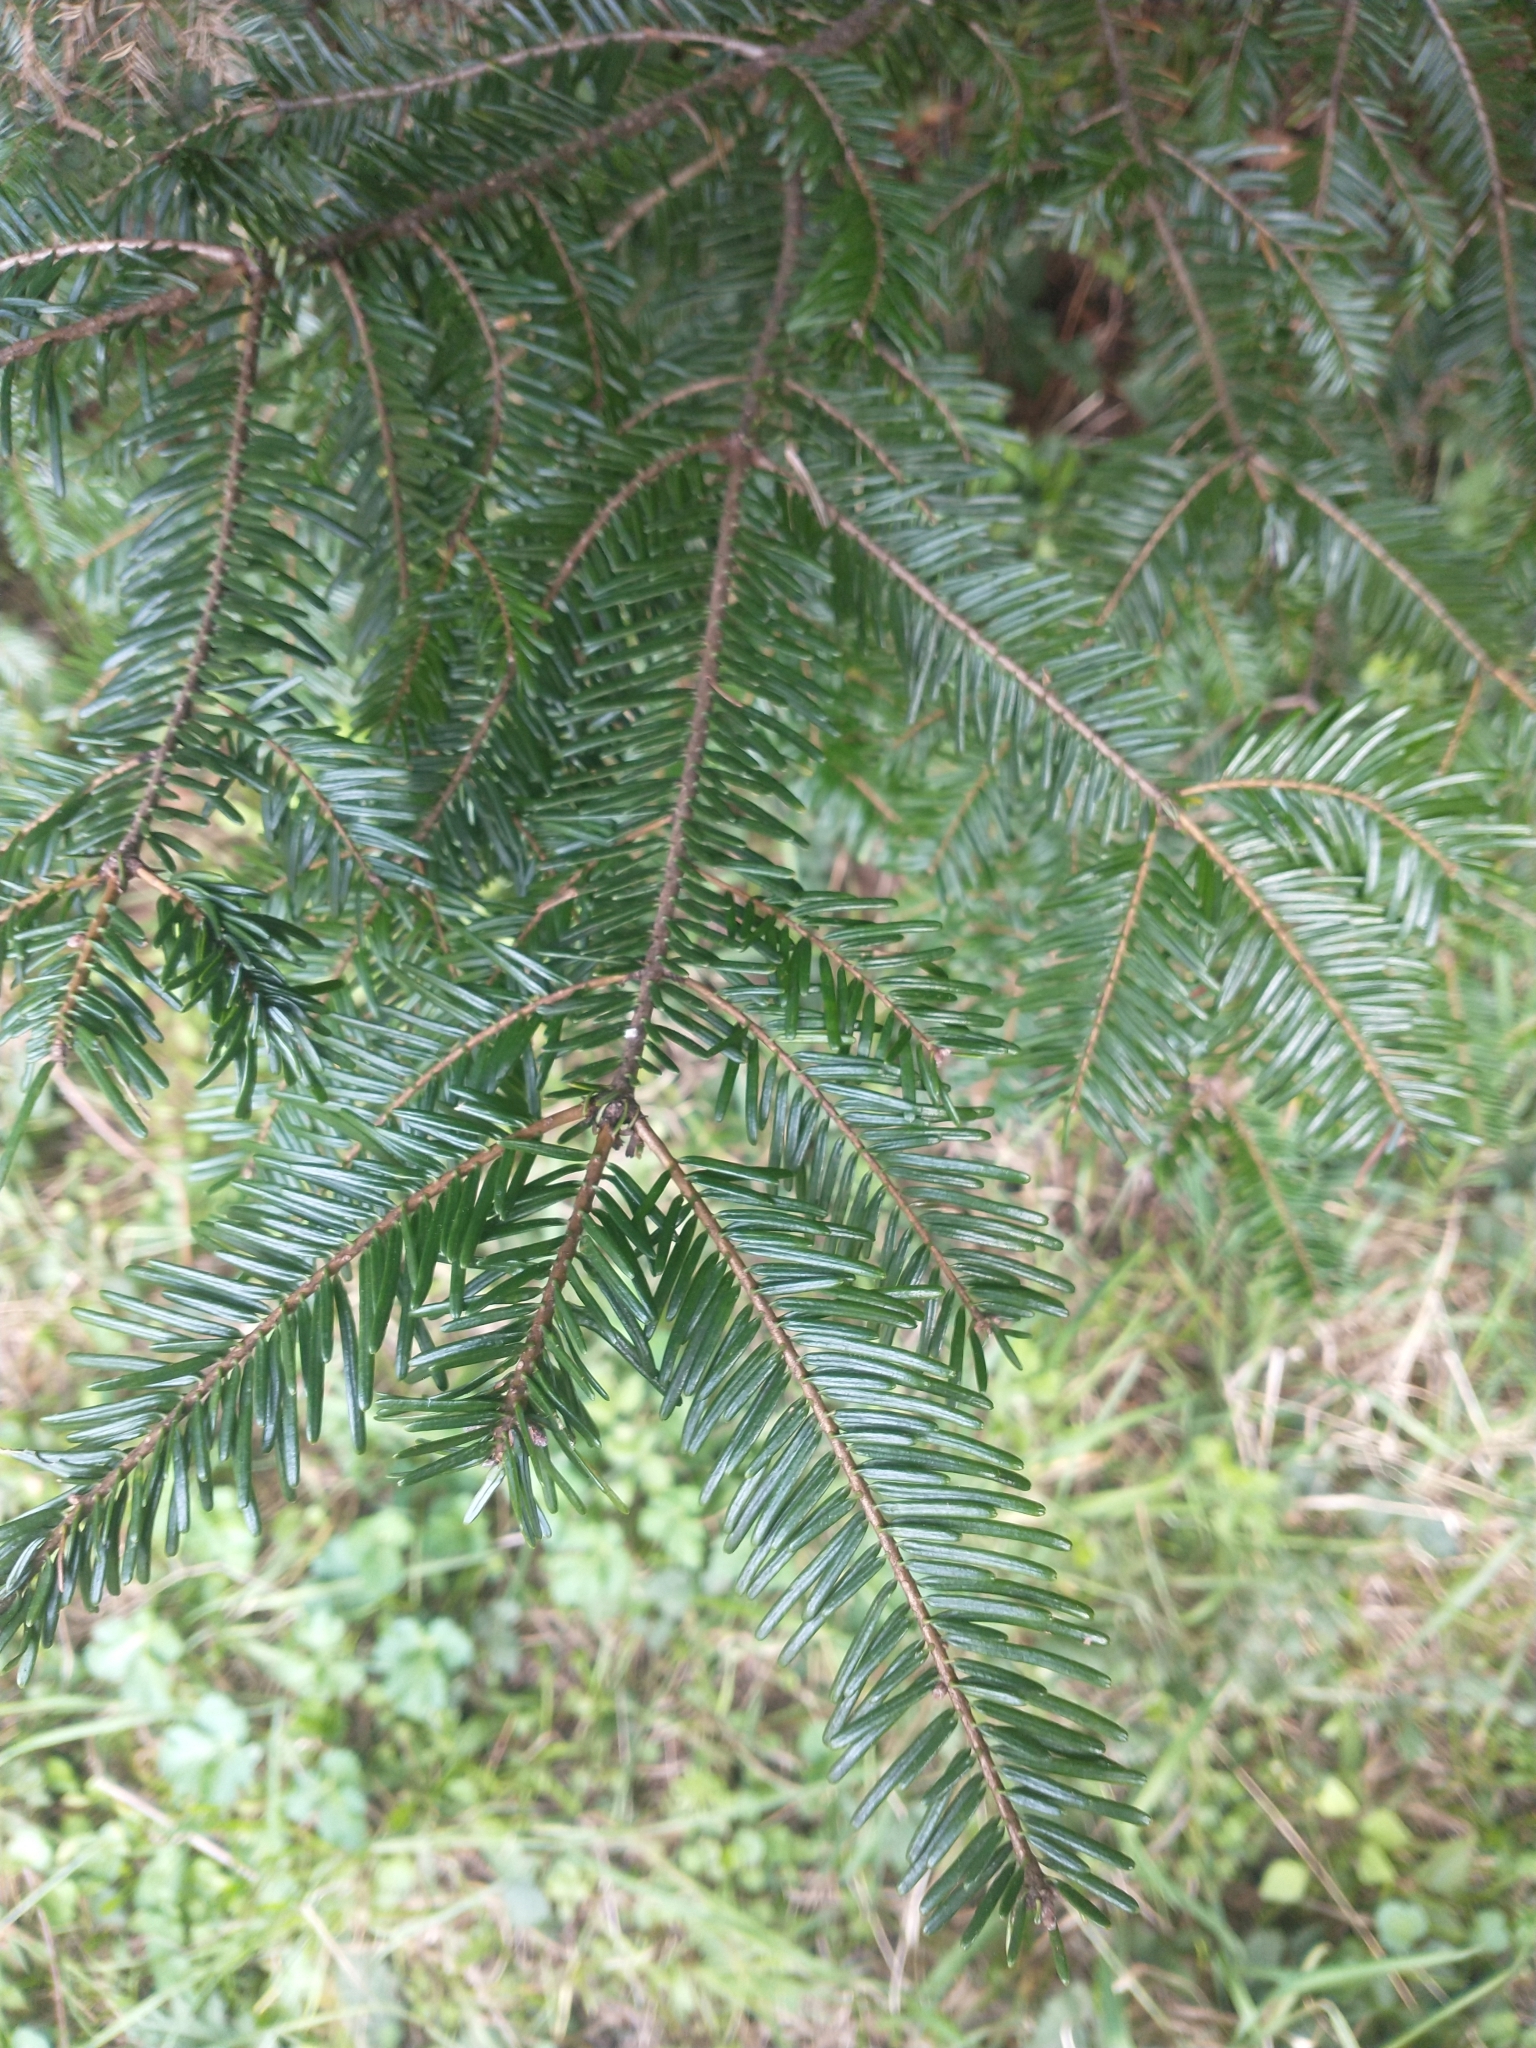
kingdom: Plantae
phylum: Tracheophyta
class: Pinopsida
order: Pinales
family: Pinaceae
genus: Abies
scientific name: Abies grandis
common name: Giant fir
